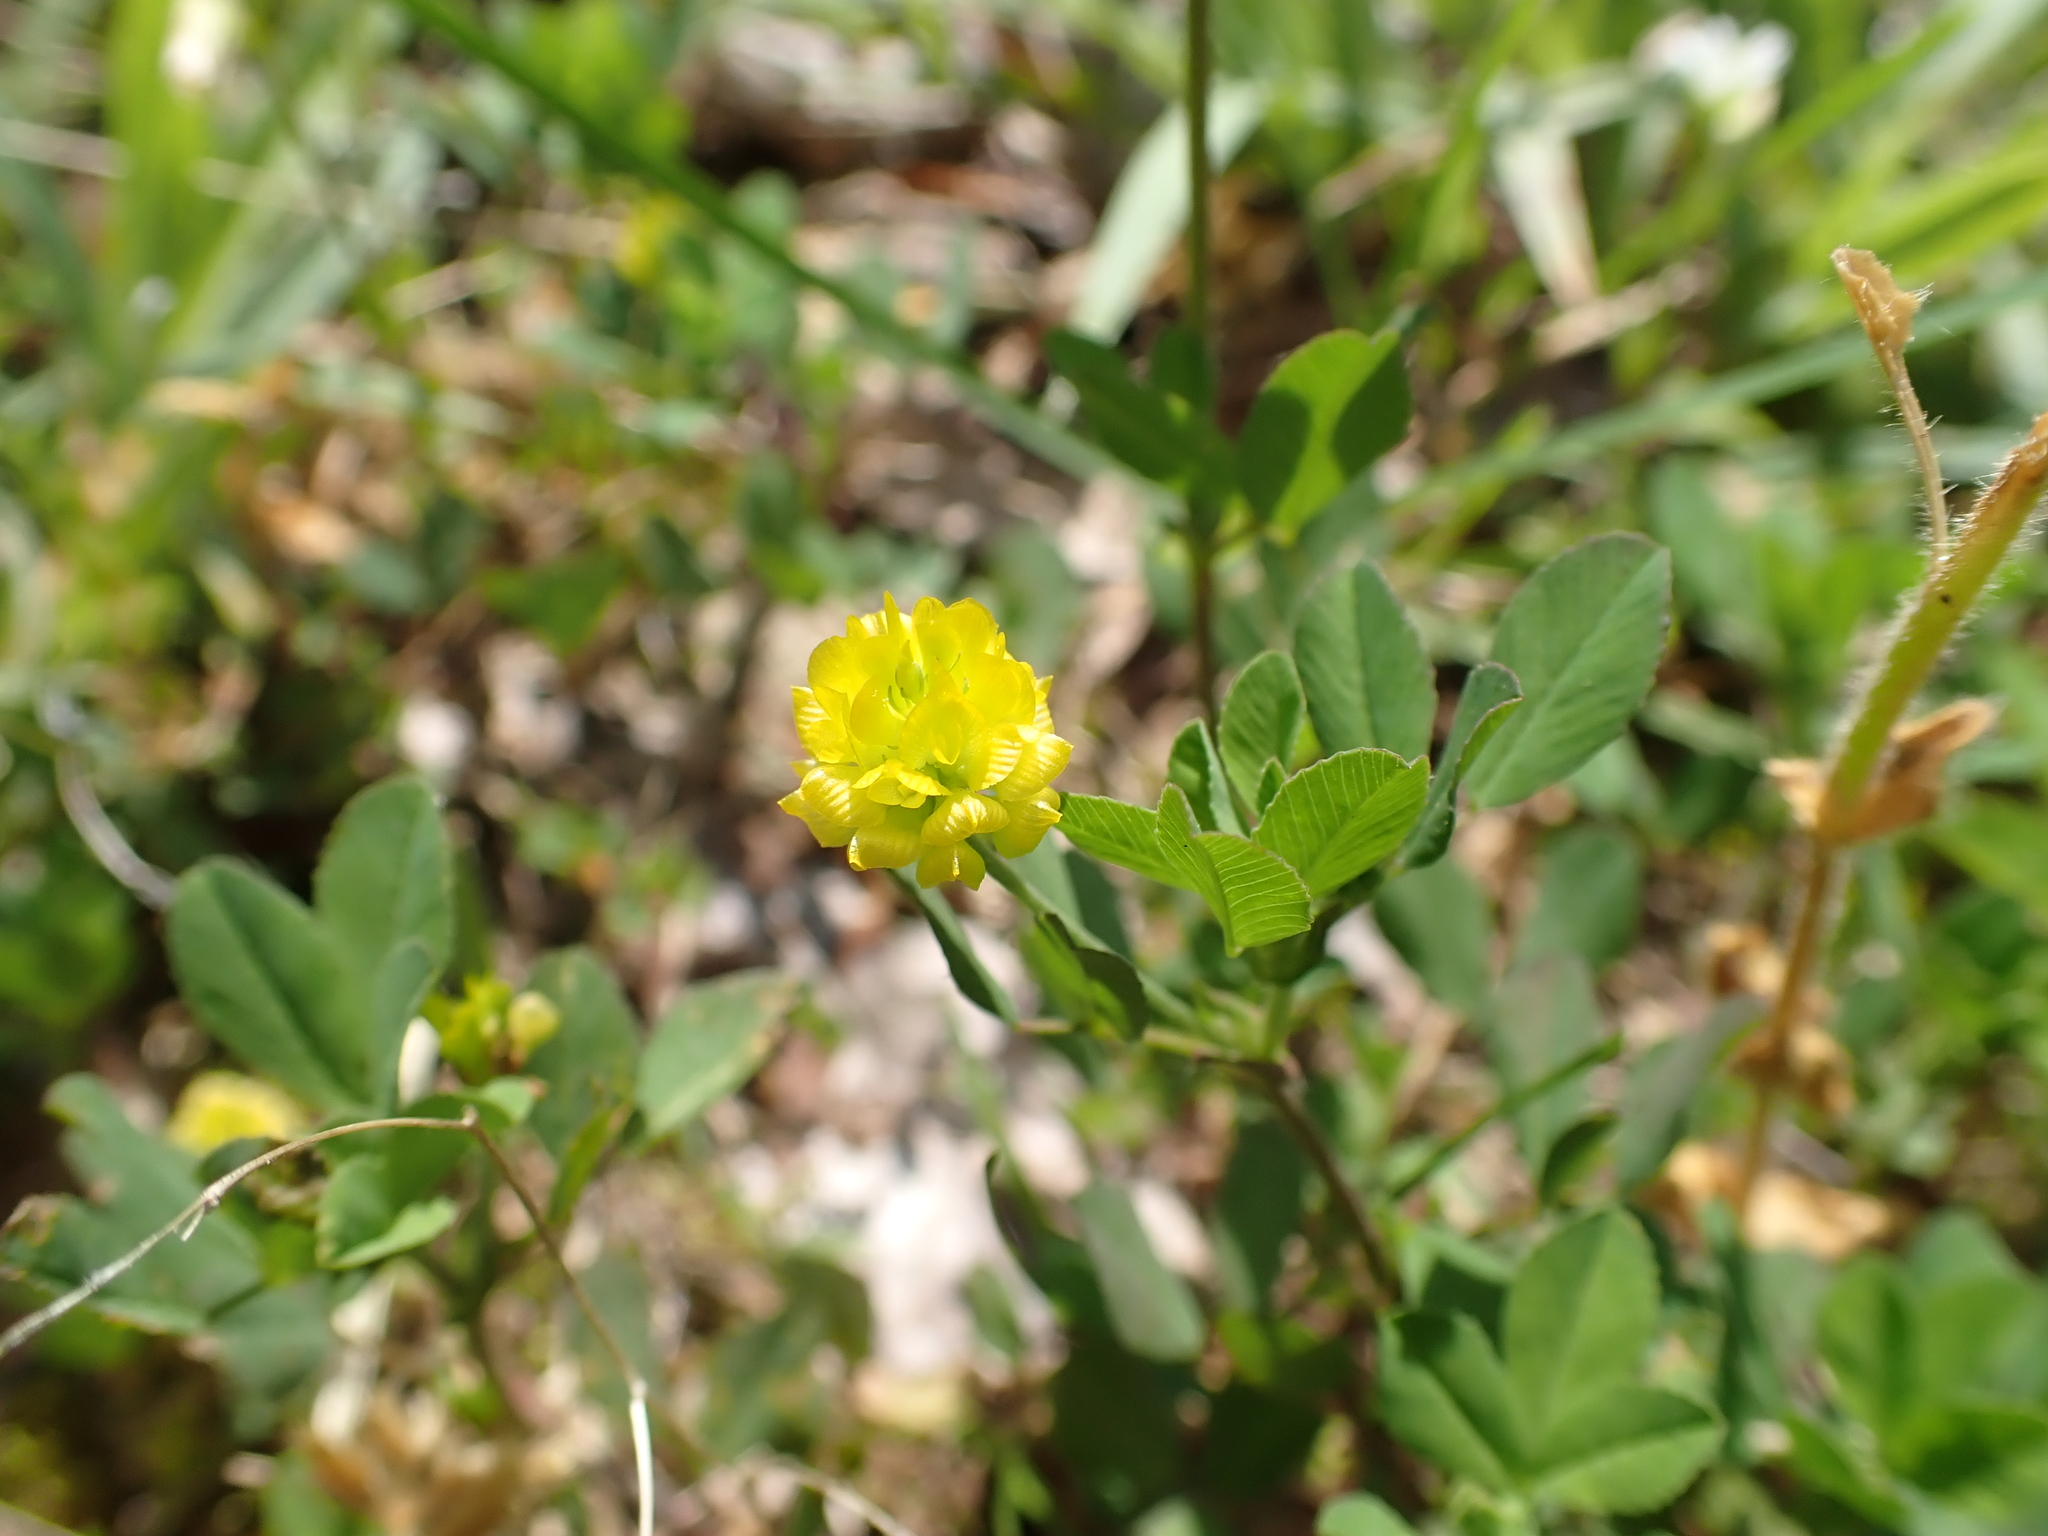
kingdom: Plantae
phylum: Tracheophyta
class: Magnoliopsida
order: Fabales
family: Fabaceae
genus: Trifolium
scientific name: Trifolium campestre
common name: Field clover
